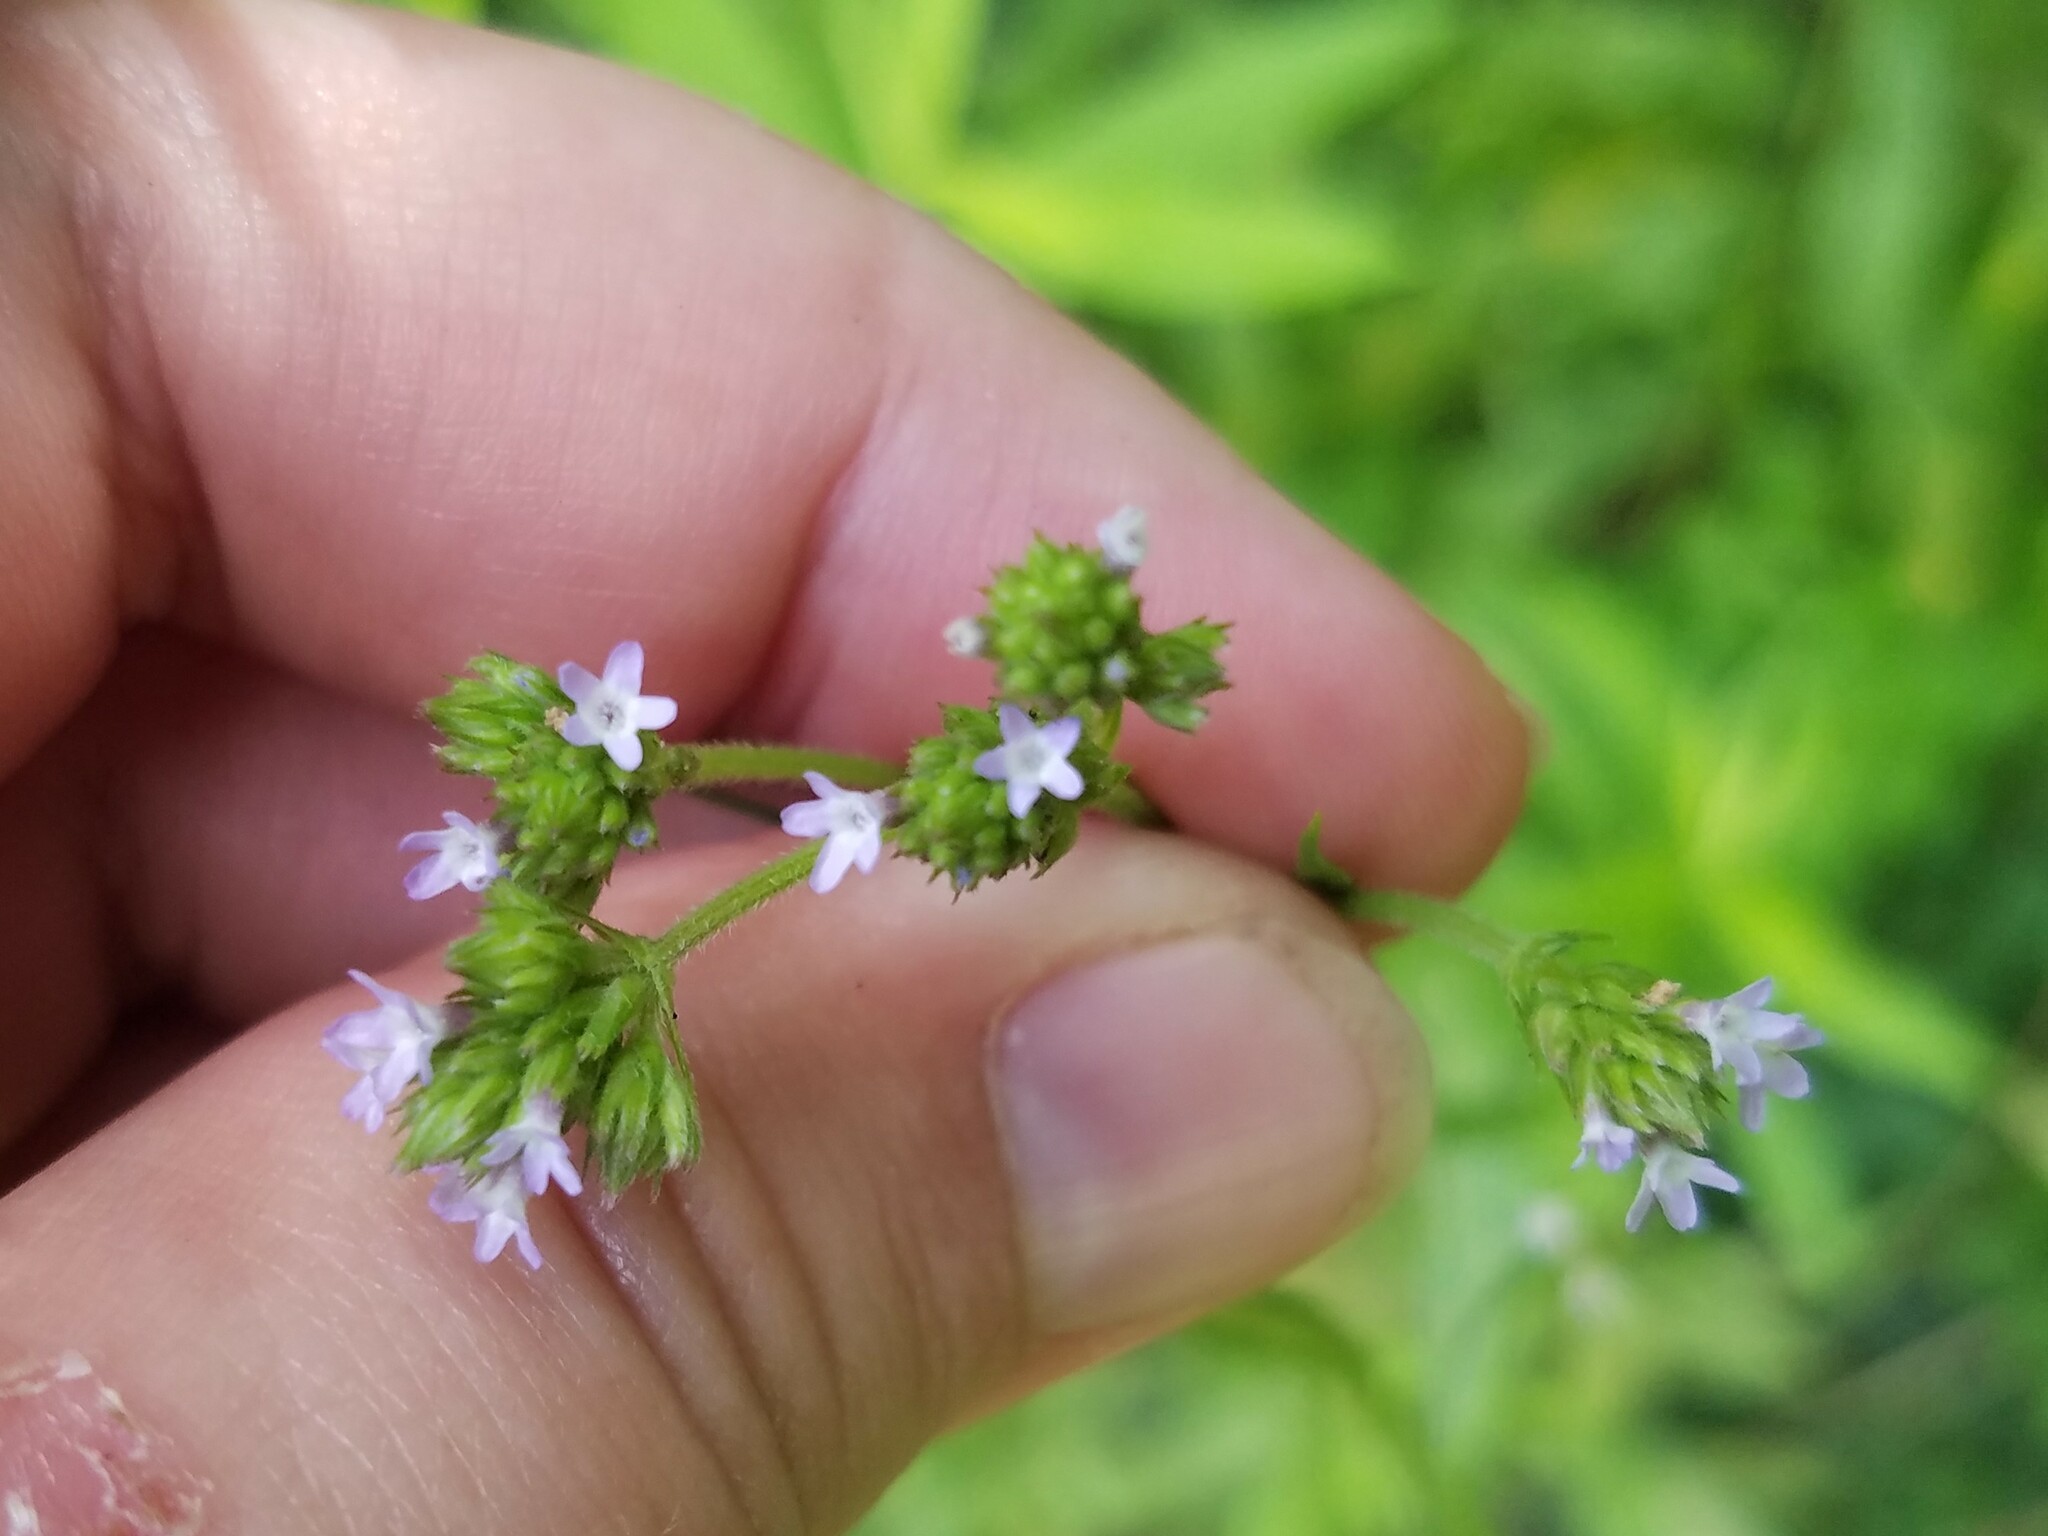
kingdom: Plantae
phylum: Tracheophyta
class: Magnoliopsida
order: Lamiales
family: Verbenaceae
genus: Verbena
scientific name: Verbena brasiliensis
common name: Brazilian vervain
